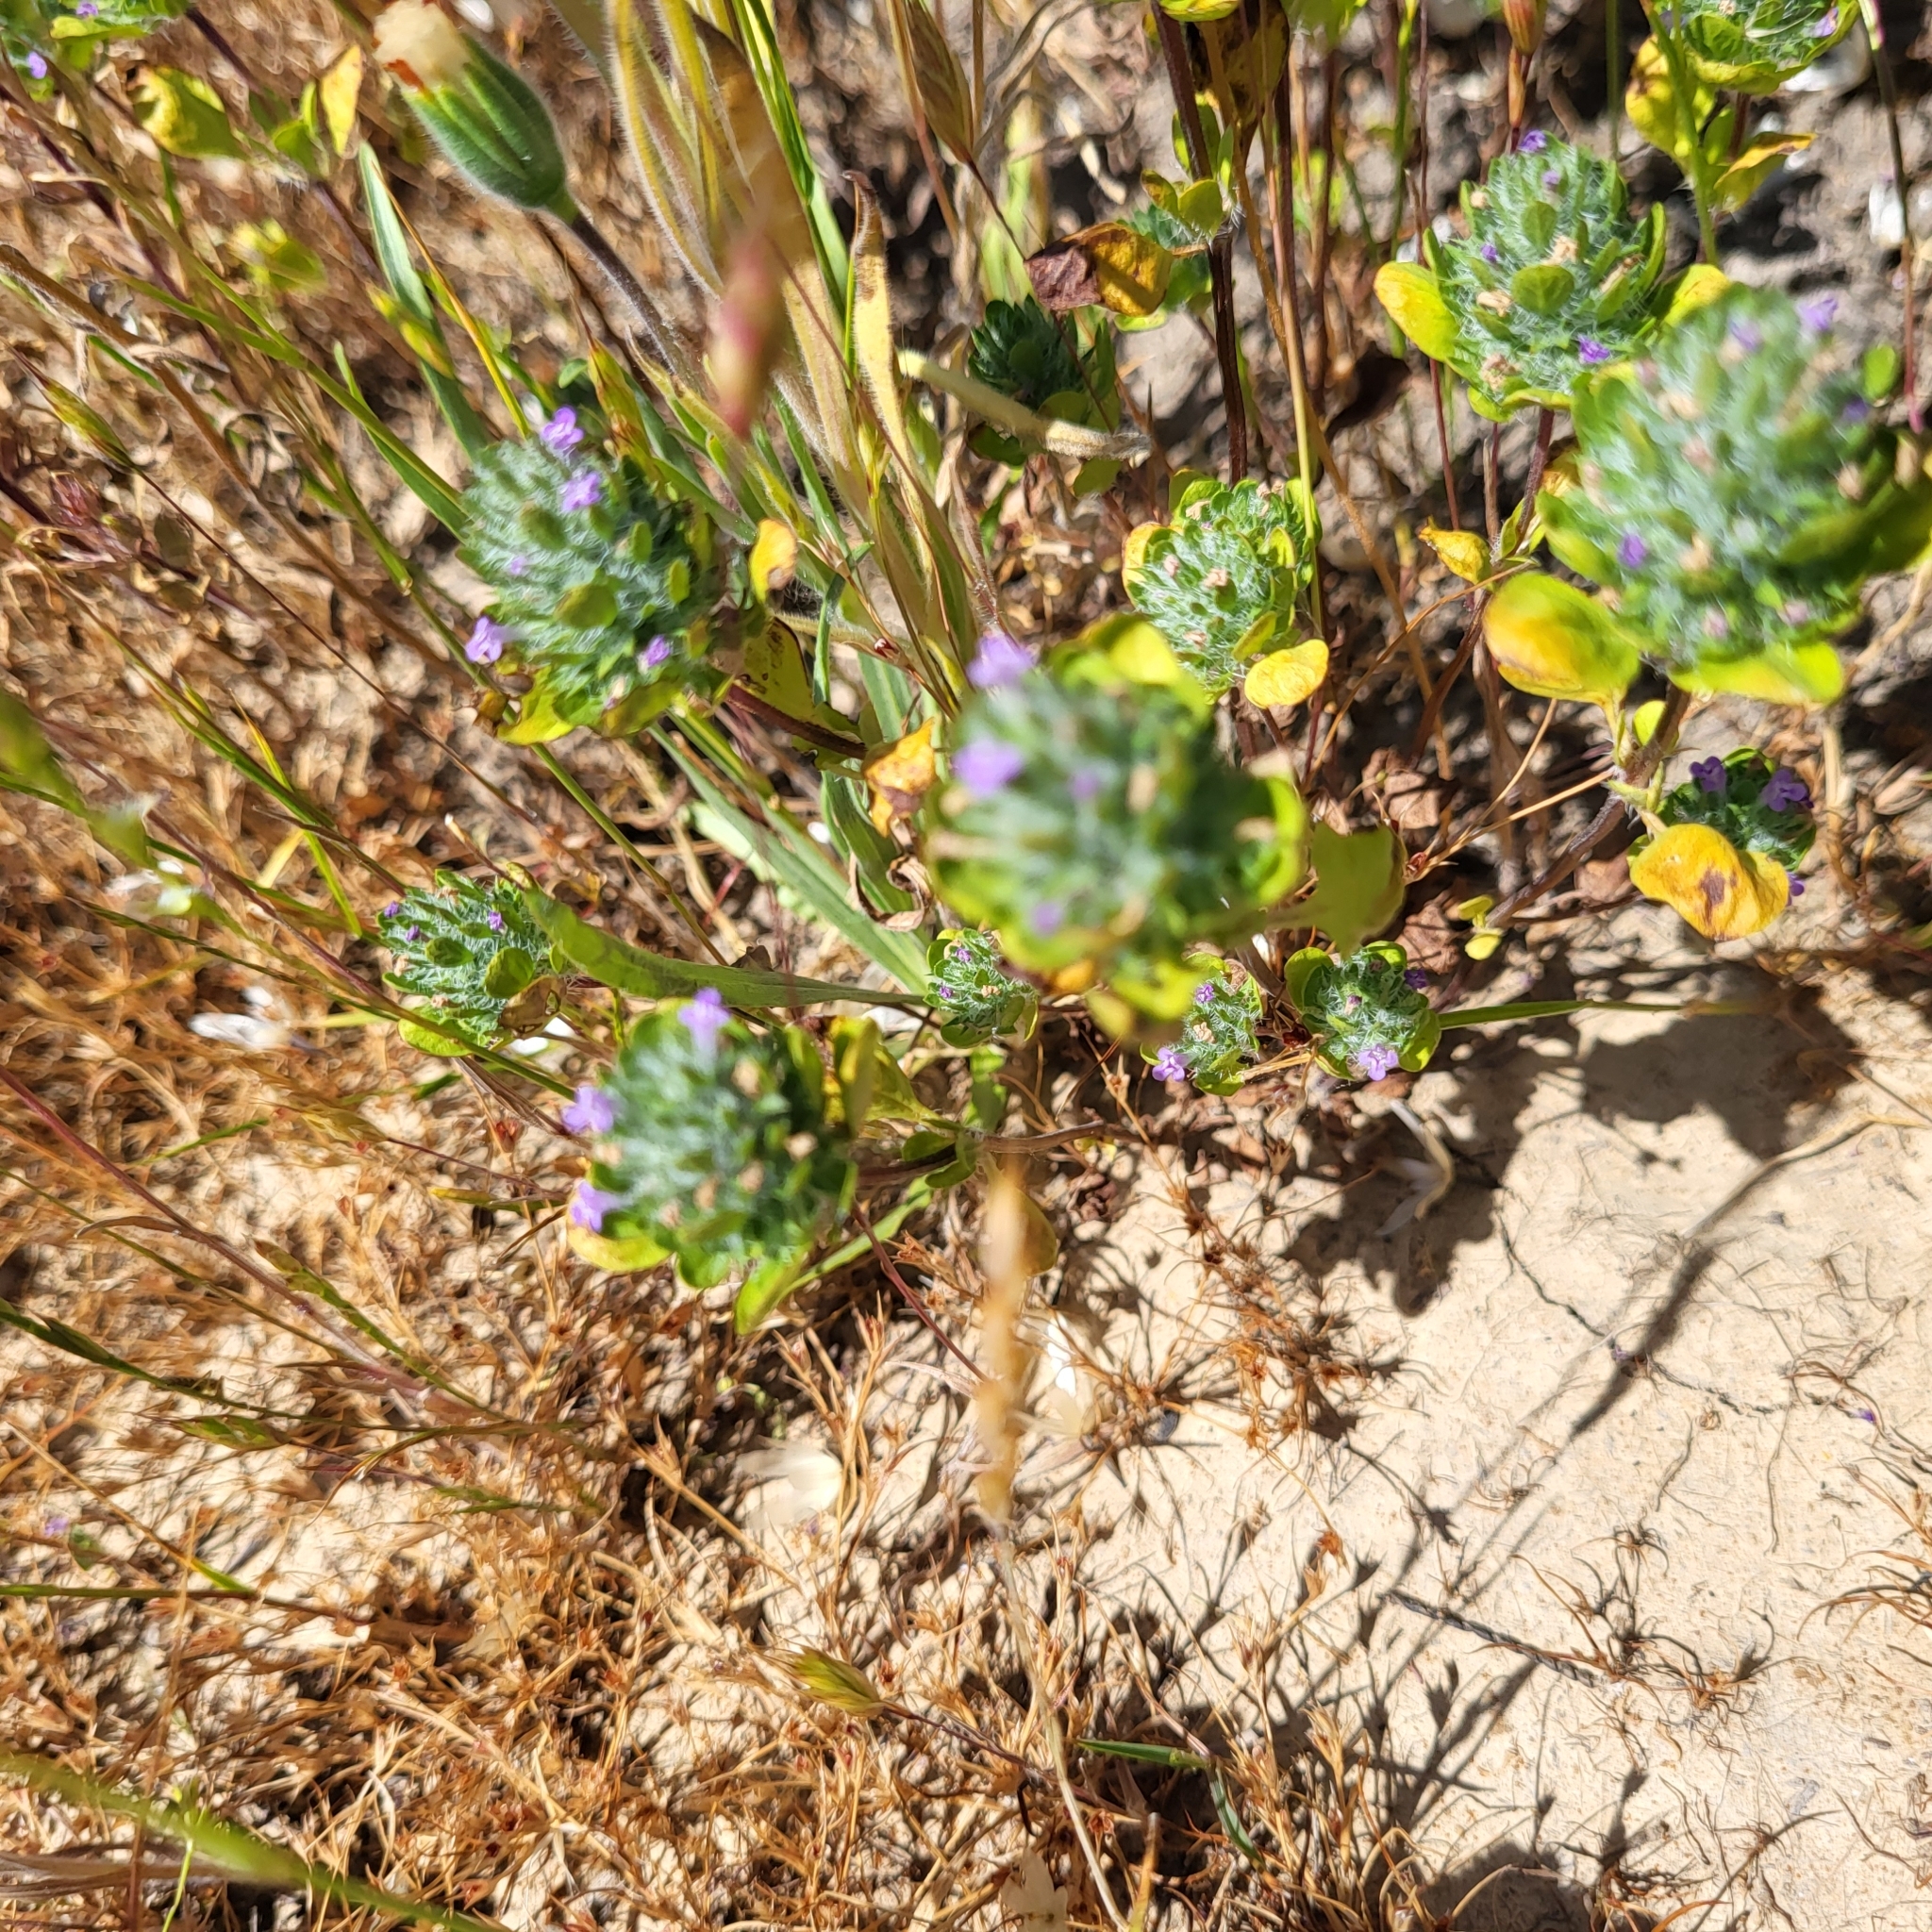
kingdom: Plantae
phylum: Tracheophyta
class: Magnoliopsida
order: Lamiales
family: Lamiaceae
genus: Pogogyne
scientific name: Pogogyne zizyphoroides
